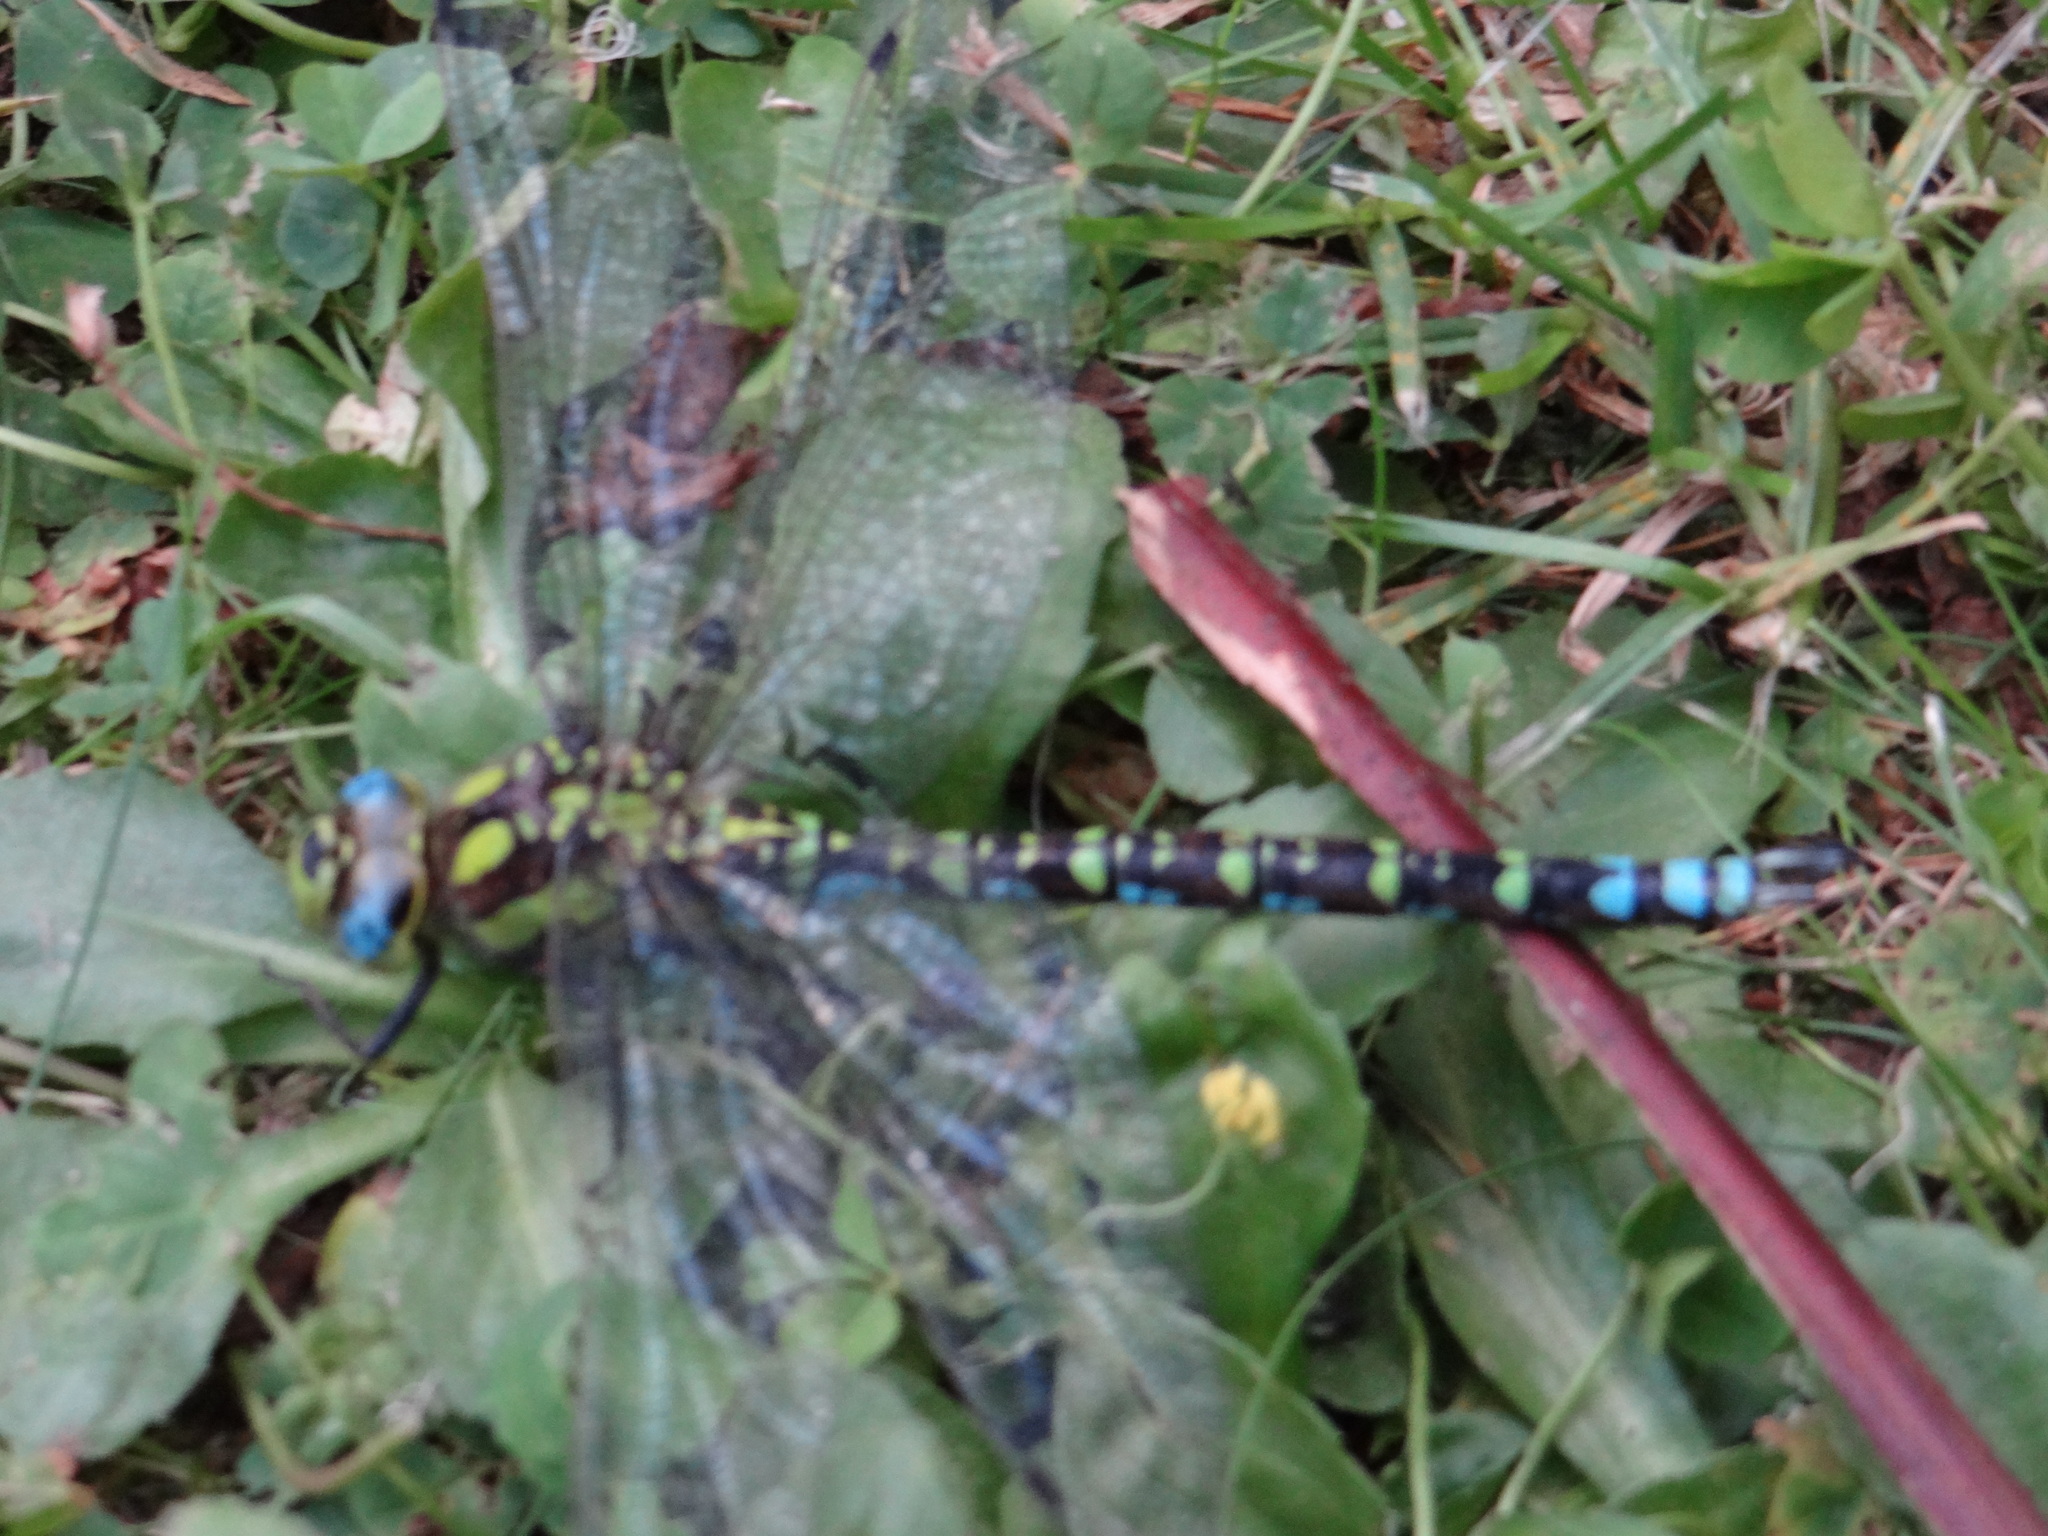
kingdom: Animalia
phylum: Arthropoda
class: Insecta
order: Odonata
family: Aeshnidae
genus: Aeshna
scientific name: Aeshna cyanea
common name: Southern hawker
